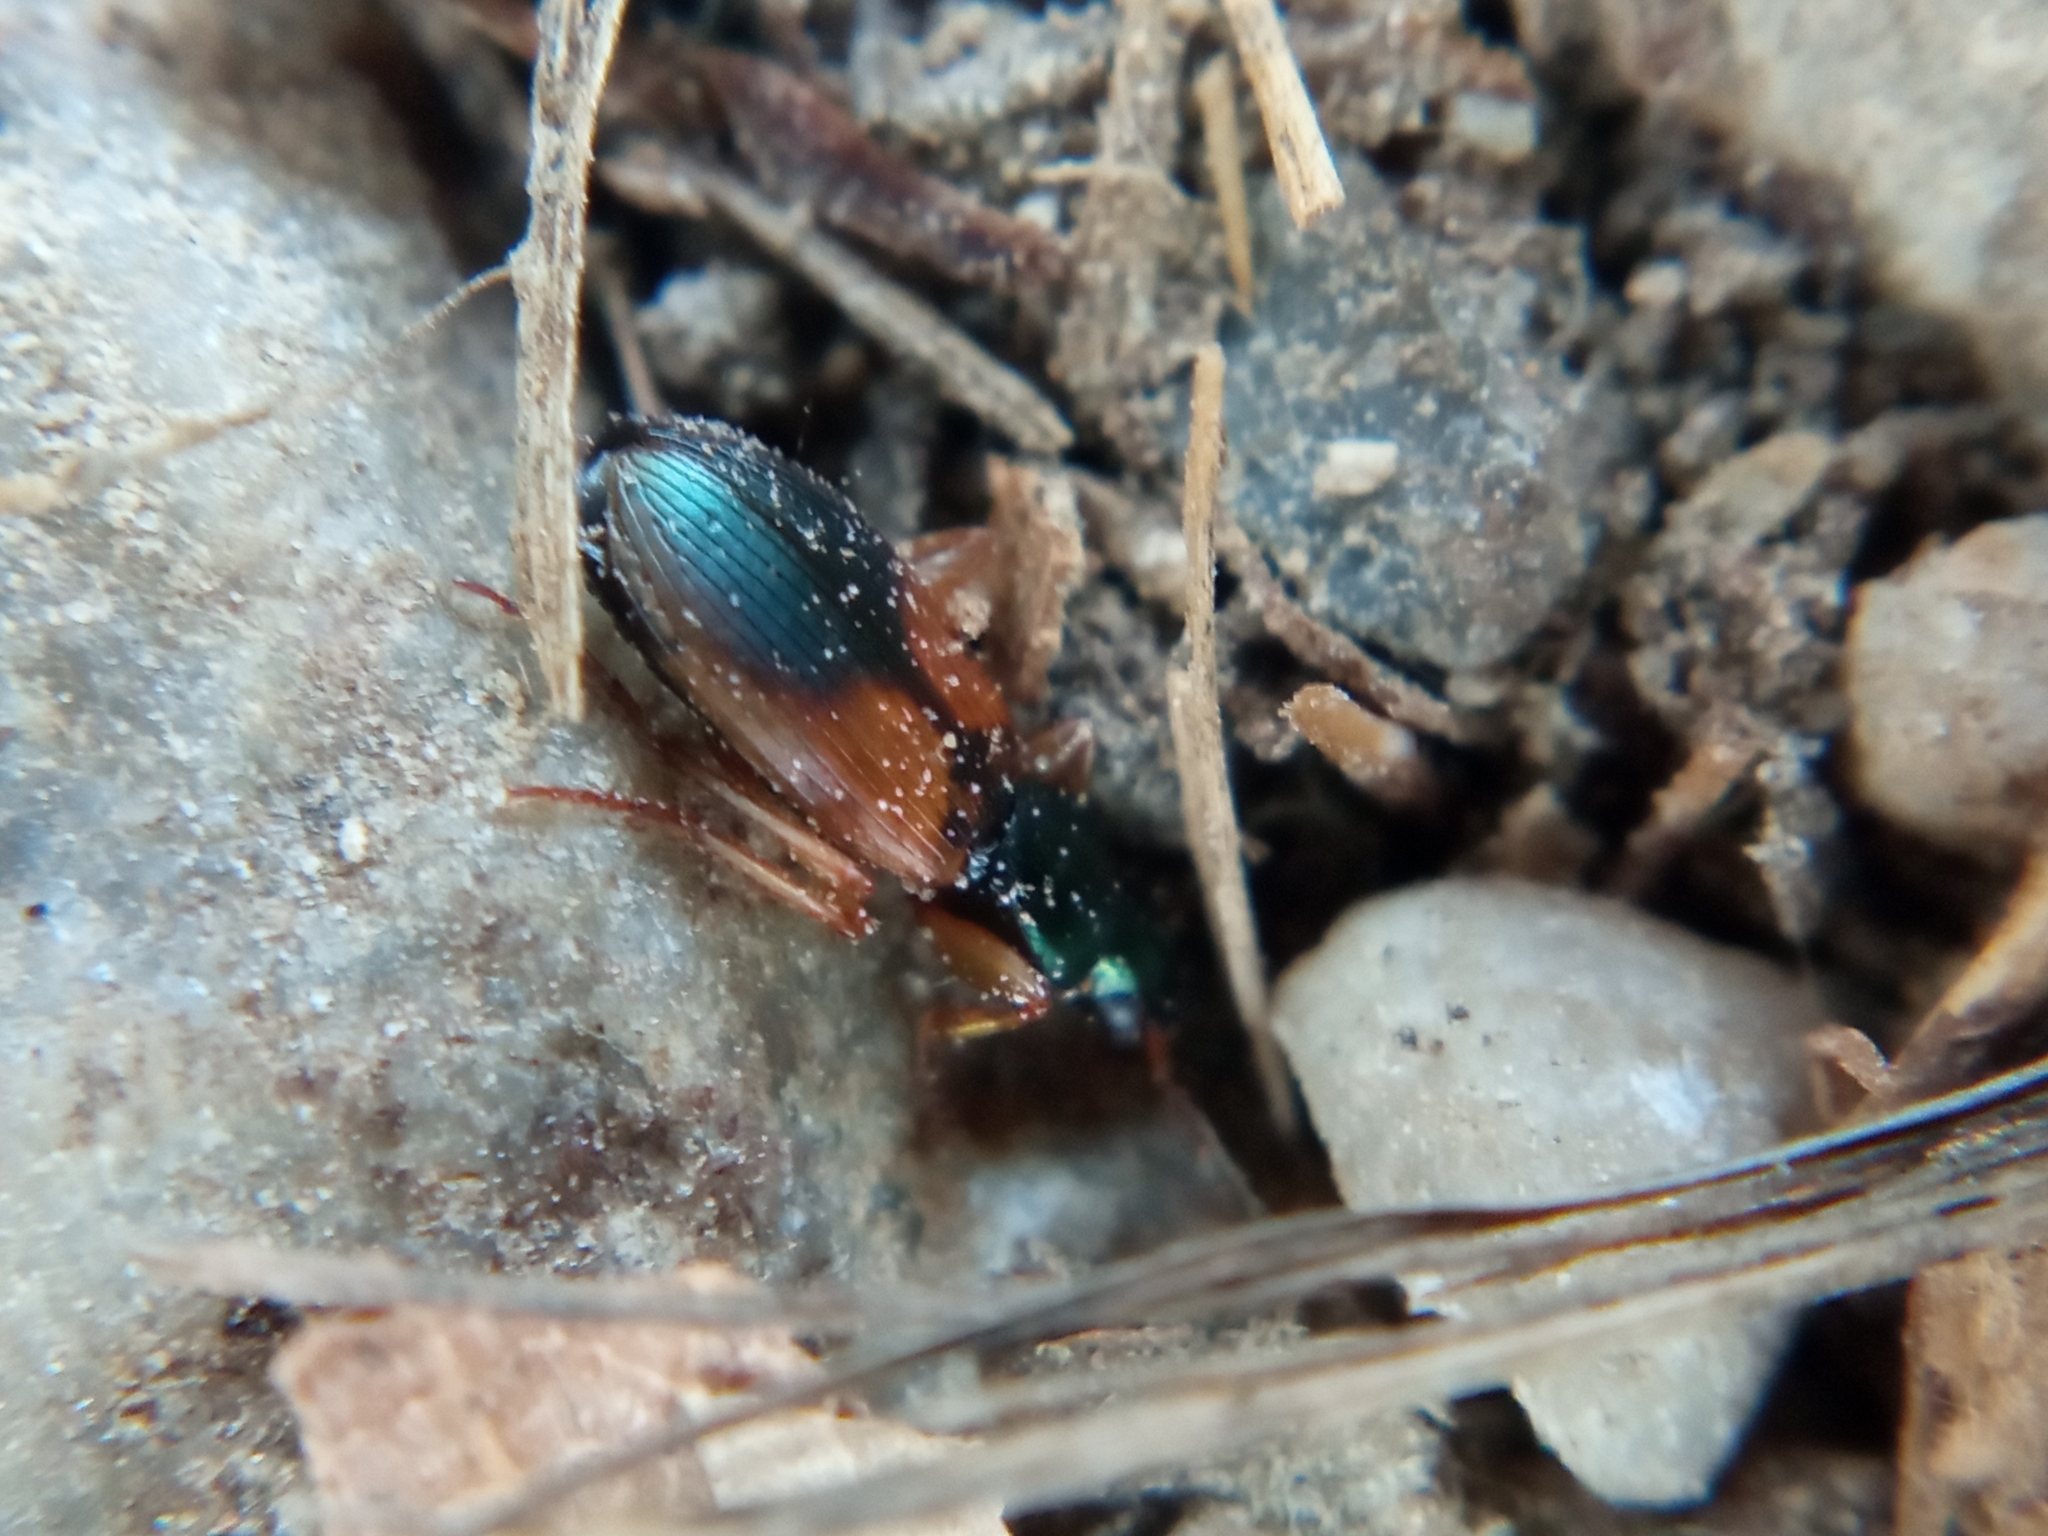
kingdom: Animalia
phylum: Arthropoda
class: Insecta
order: Coleoptera
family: Carabidae
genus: Anchomenus
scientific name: Anchomenus dorsalis
